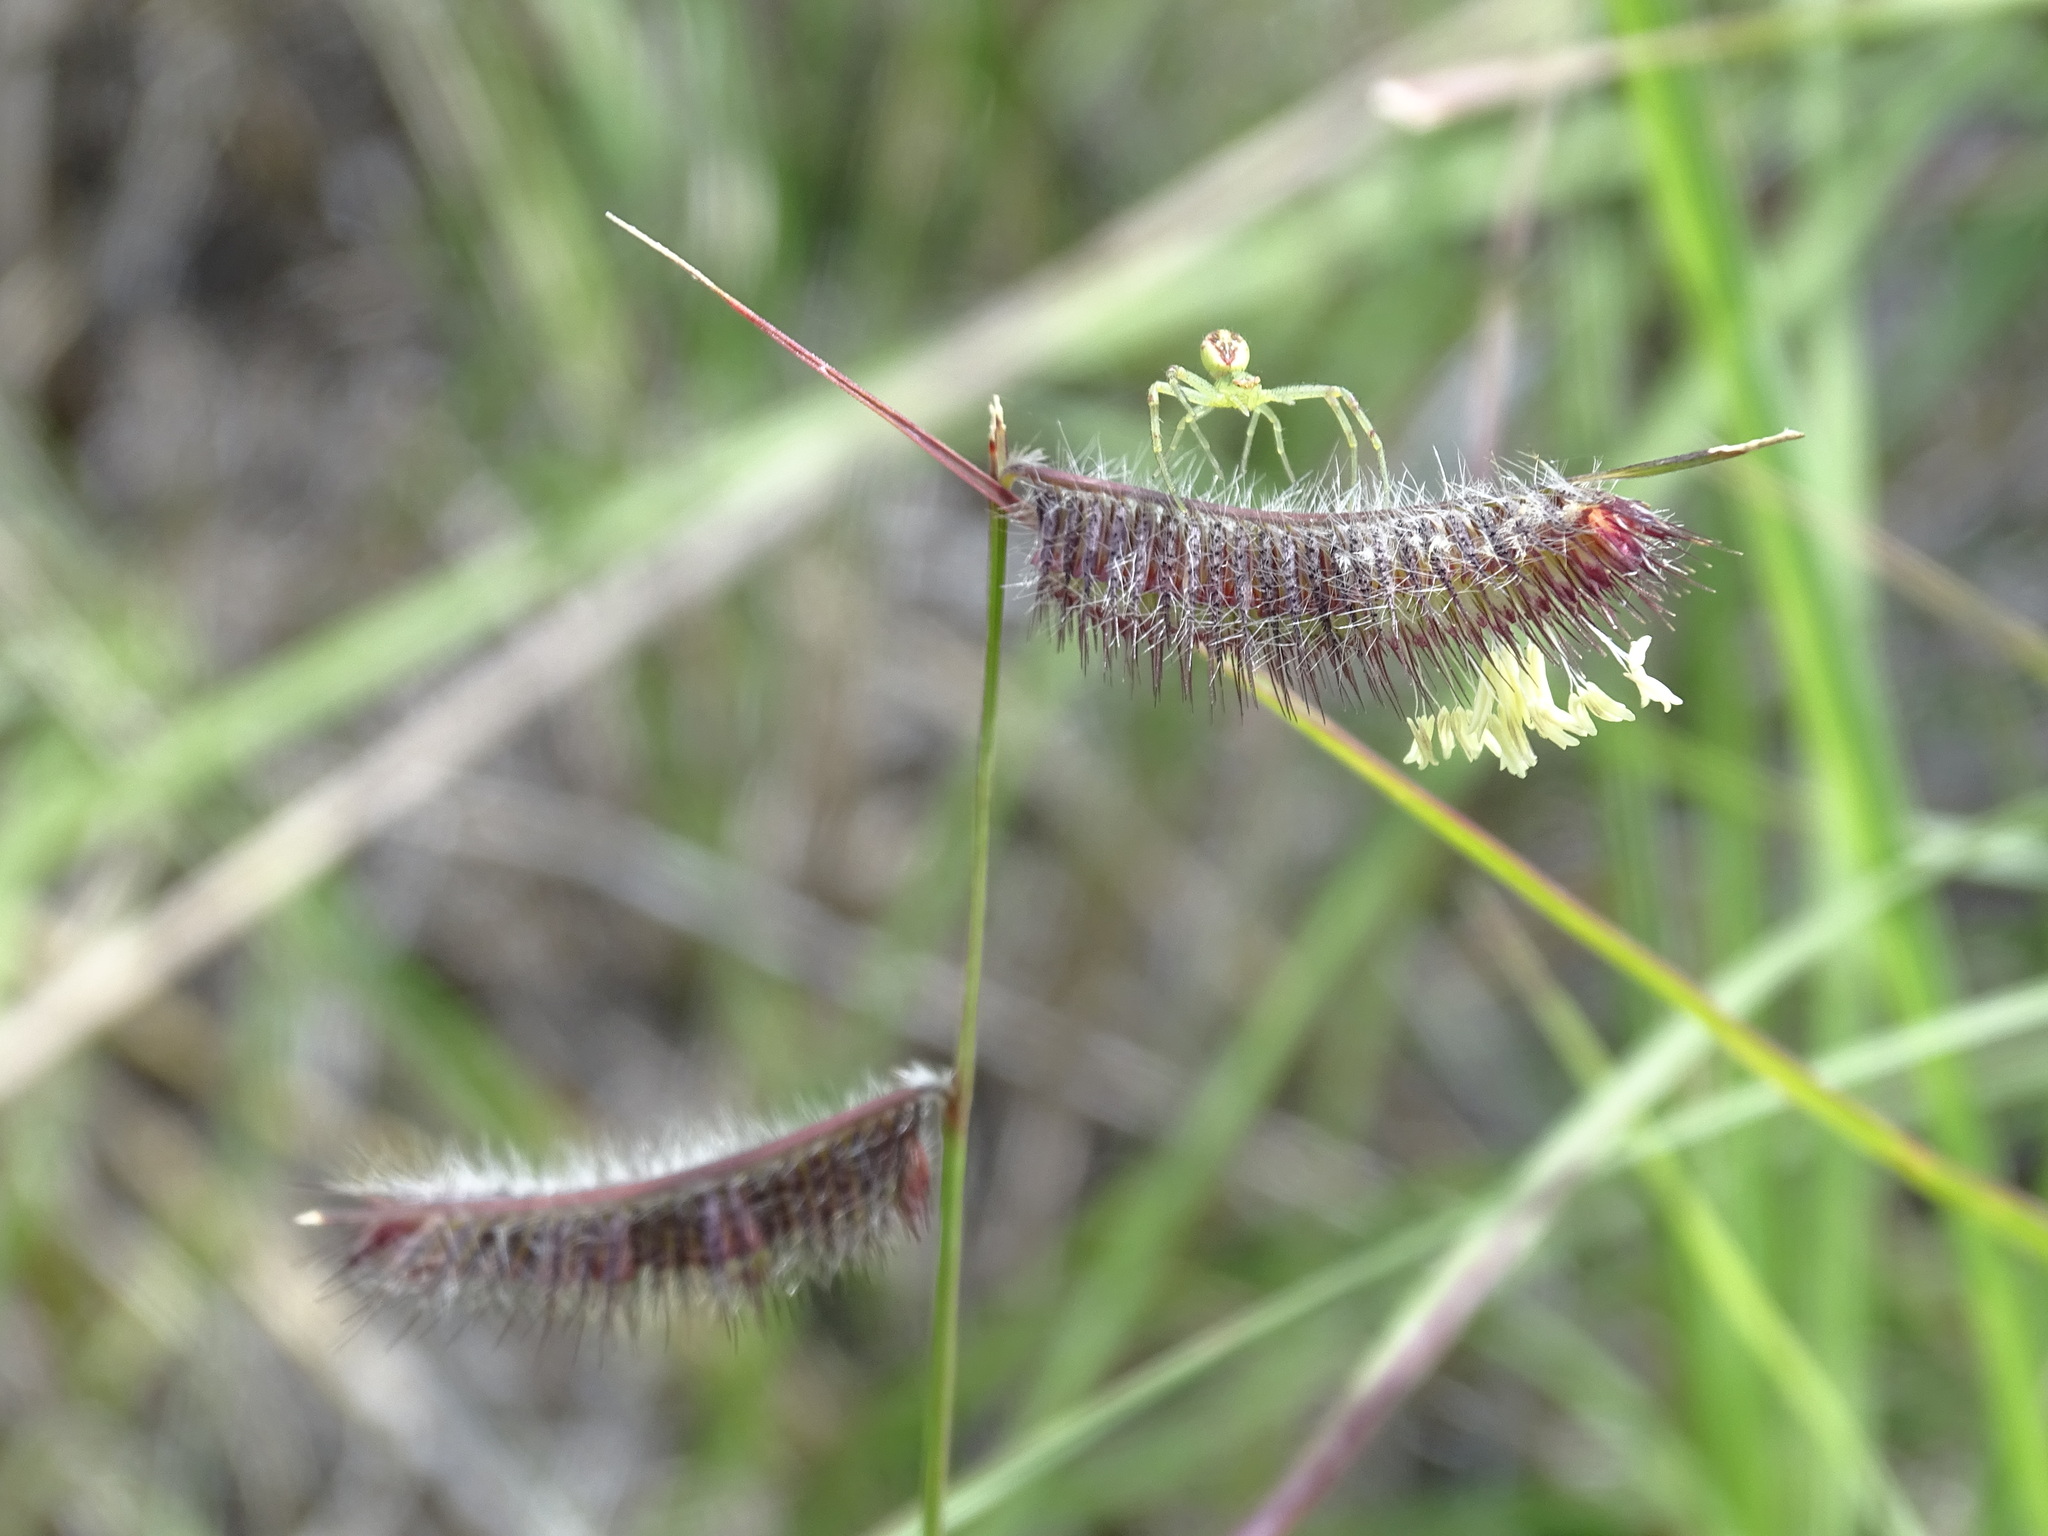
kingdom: Plantae
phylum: Tracheophyta
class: Liliopsida
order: Poales
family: Poaceae
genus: Bouteloua
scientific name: Bouteloua hirsuta
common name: Hairy grama
